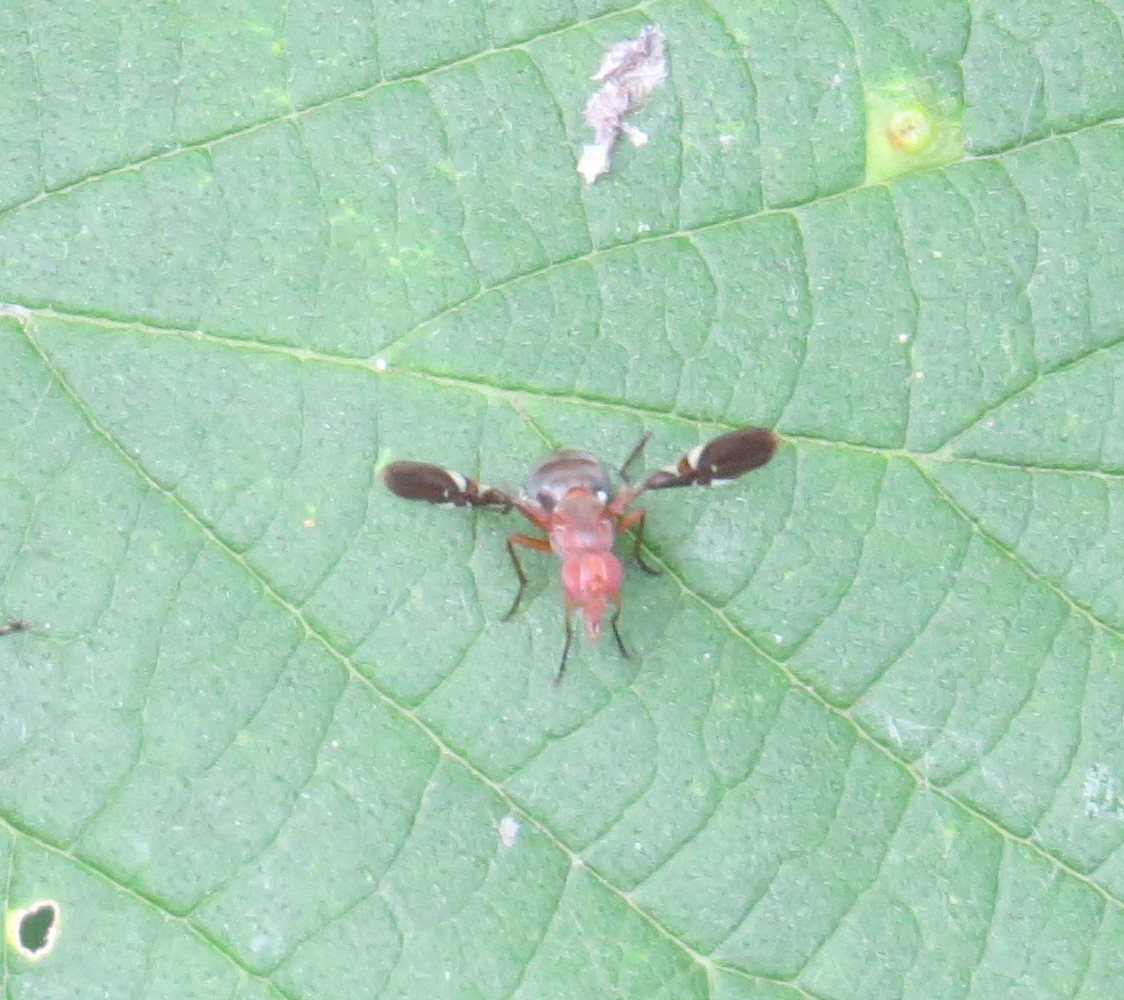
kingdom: Animalia
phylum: Arthropoda
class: Insecta
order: Diptera
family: Ulidiidae
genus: Delphinia
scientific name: Delphinia picta
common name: Common picture-winged fly
